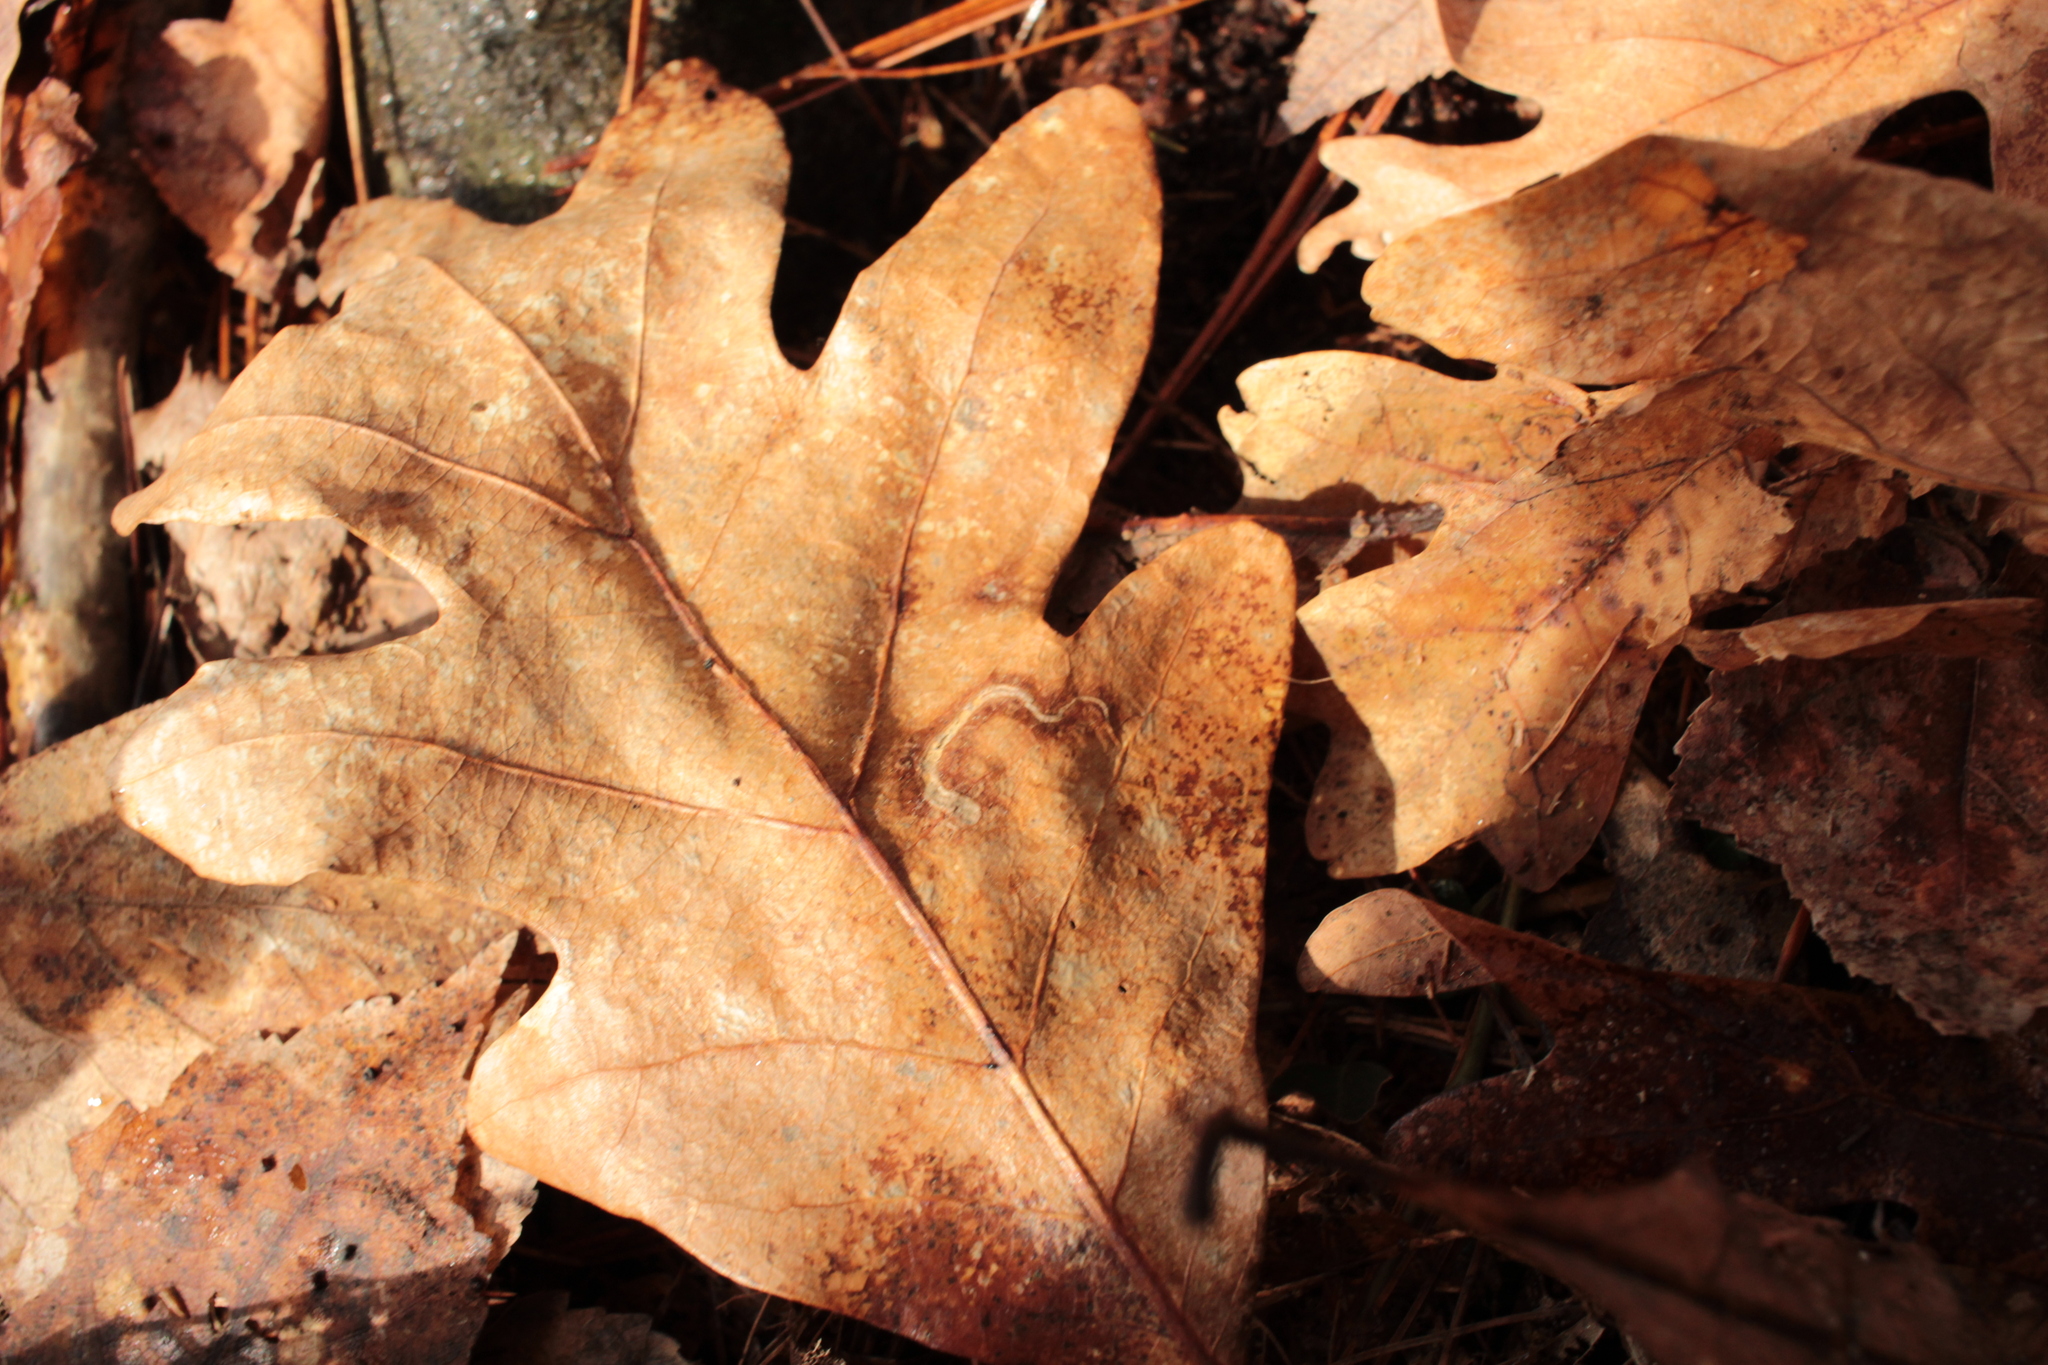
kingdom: Plantae
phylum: Tracheophyta
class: Magnoliopsida
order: Fagales
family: Fagaceae
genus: Quercus
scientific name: Quercus alba
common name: White oak
